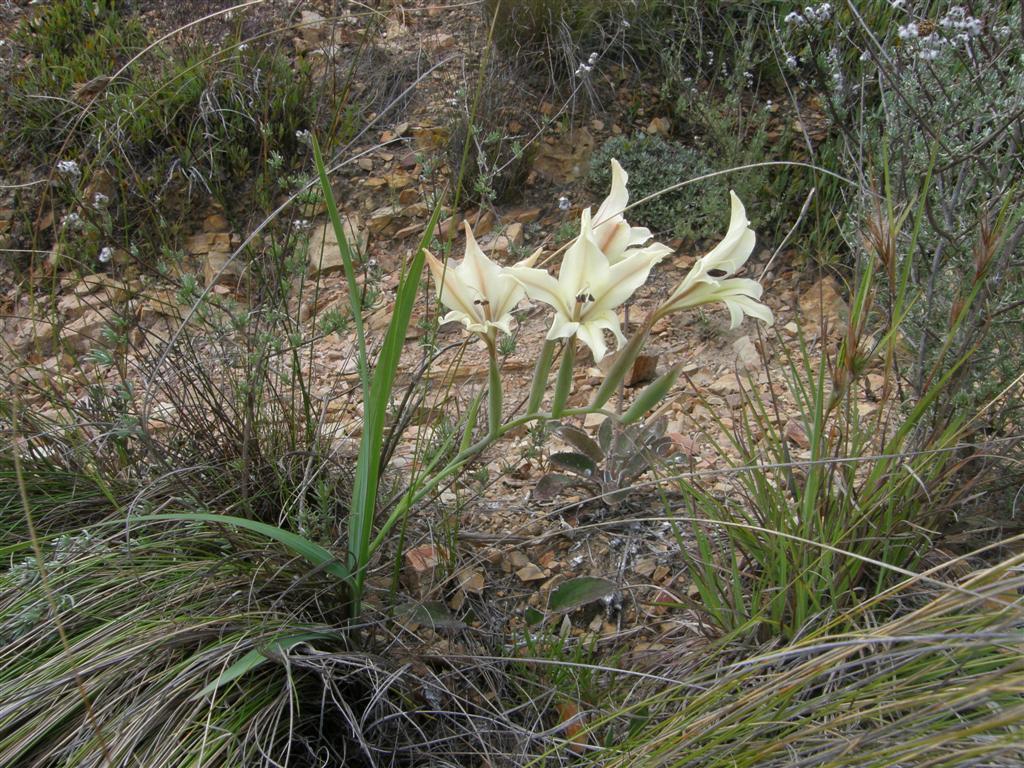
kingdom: Plantae
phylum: Tracheophyta
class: Liliopsida
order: Asparagales
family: Iridaceae
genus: Gladiolus
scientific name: Gladiolus floribundus
